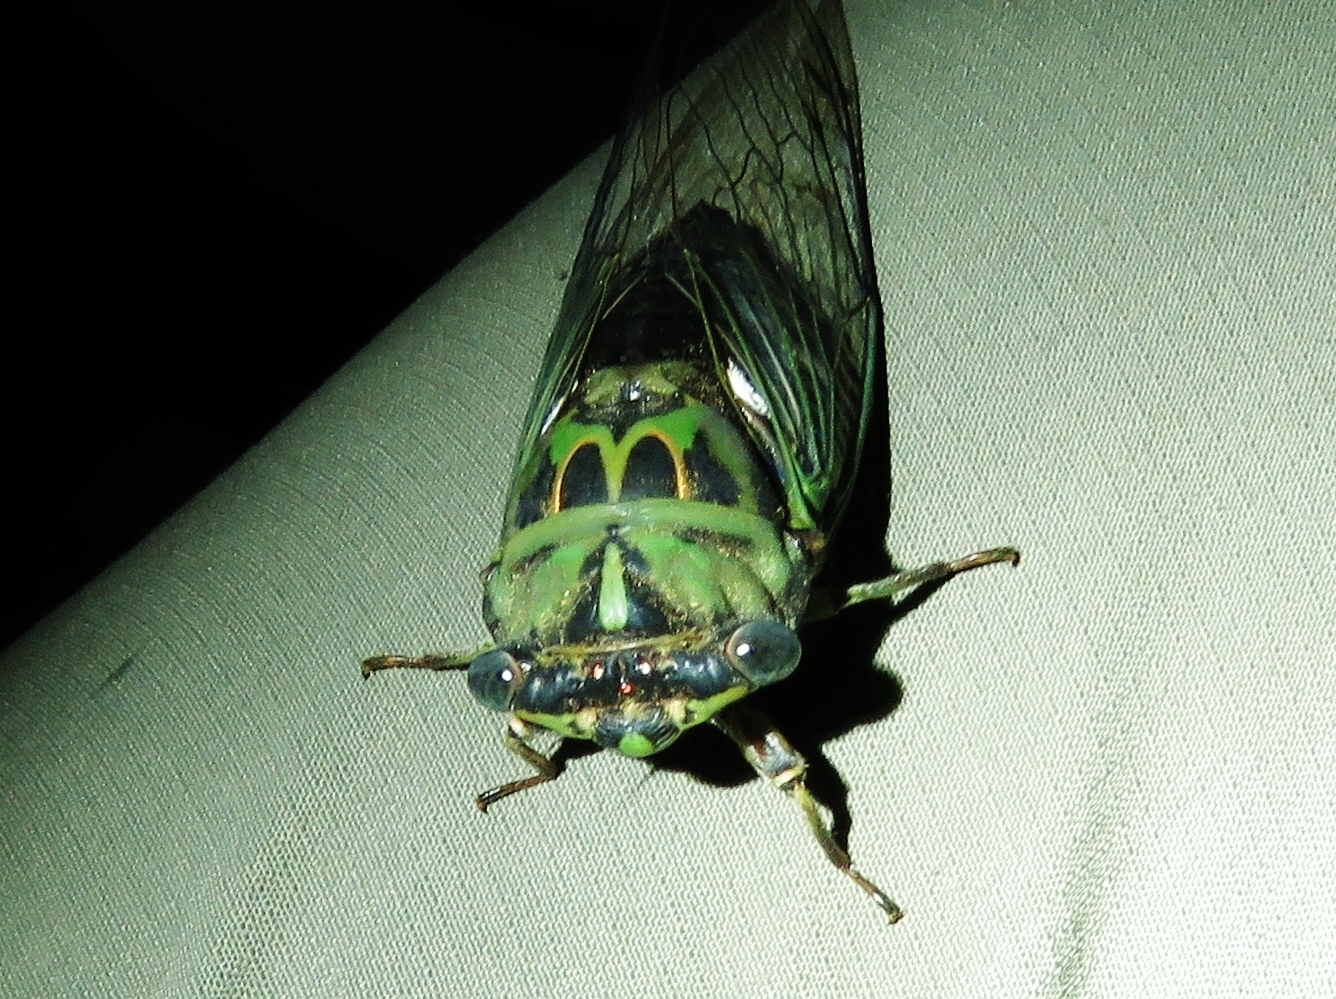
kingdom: Animalia
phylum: Arthropoda
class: Insecta
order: Hemiptera
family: Cicadidae
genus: Neotibicen
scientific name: Neotibicen pruinosus
